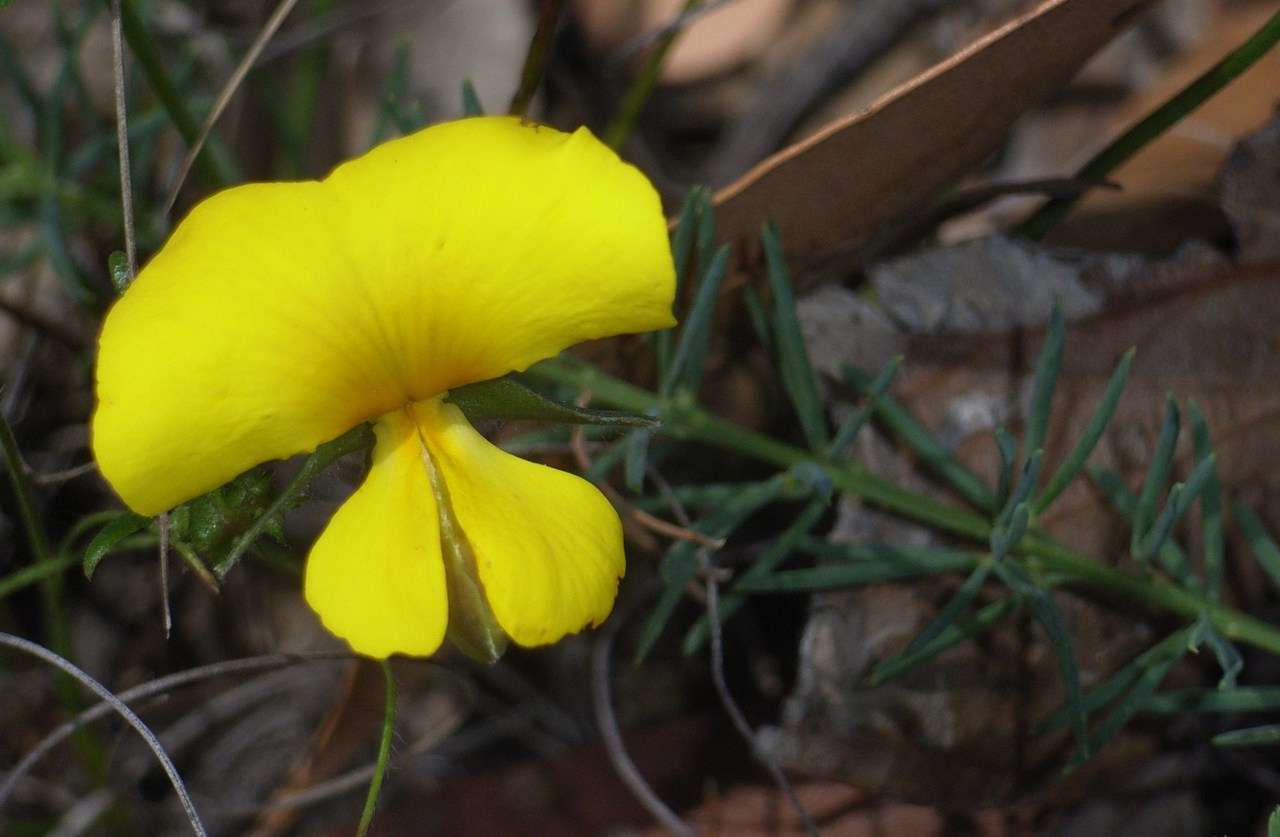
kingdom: Plantae
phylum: Tracheophyta
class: Magnoliopsida
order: Fabales
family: Fabaceae
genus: Gompholobium
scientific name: Gompholobium huegelii
